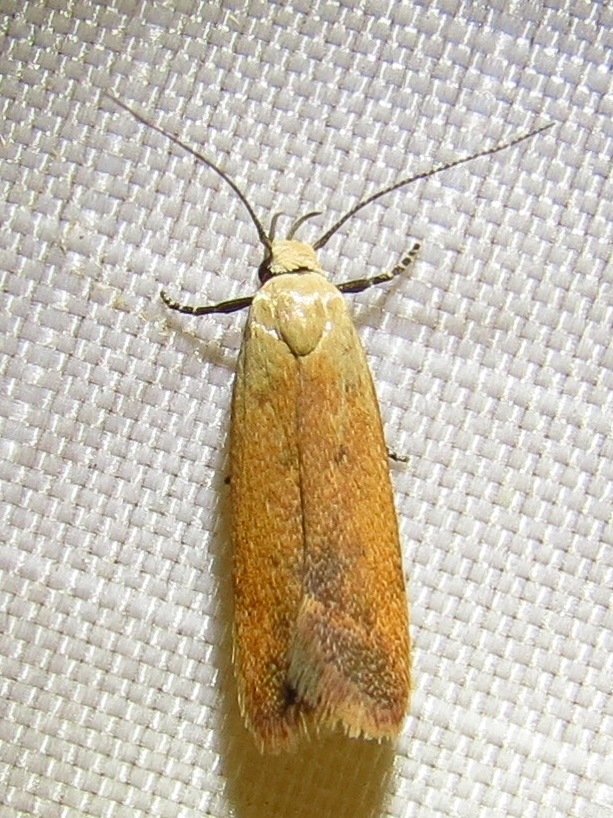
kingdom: Animalia
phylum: Arthropoda
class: Insecta
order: Lepidoptera
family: Gelechiidae
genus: Anacampsis
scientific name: Anacampsis fullonella
